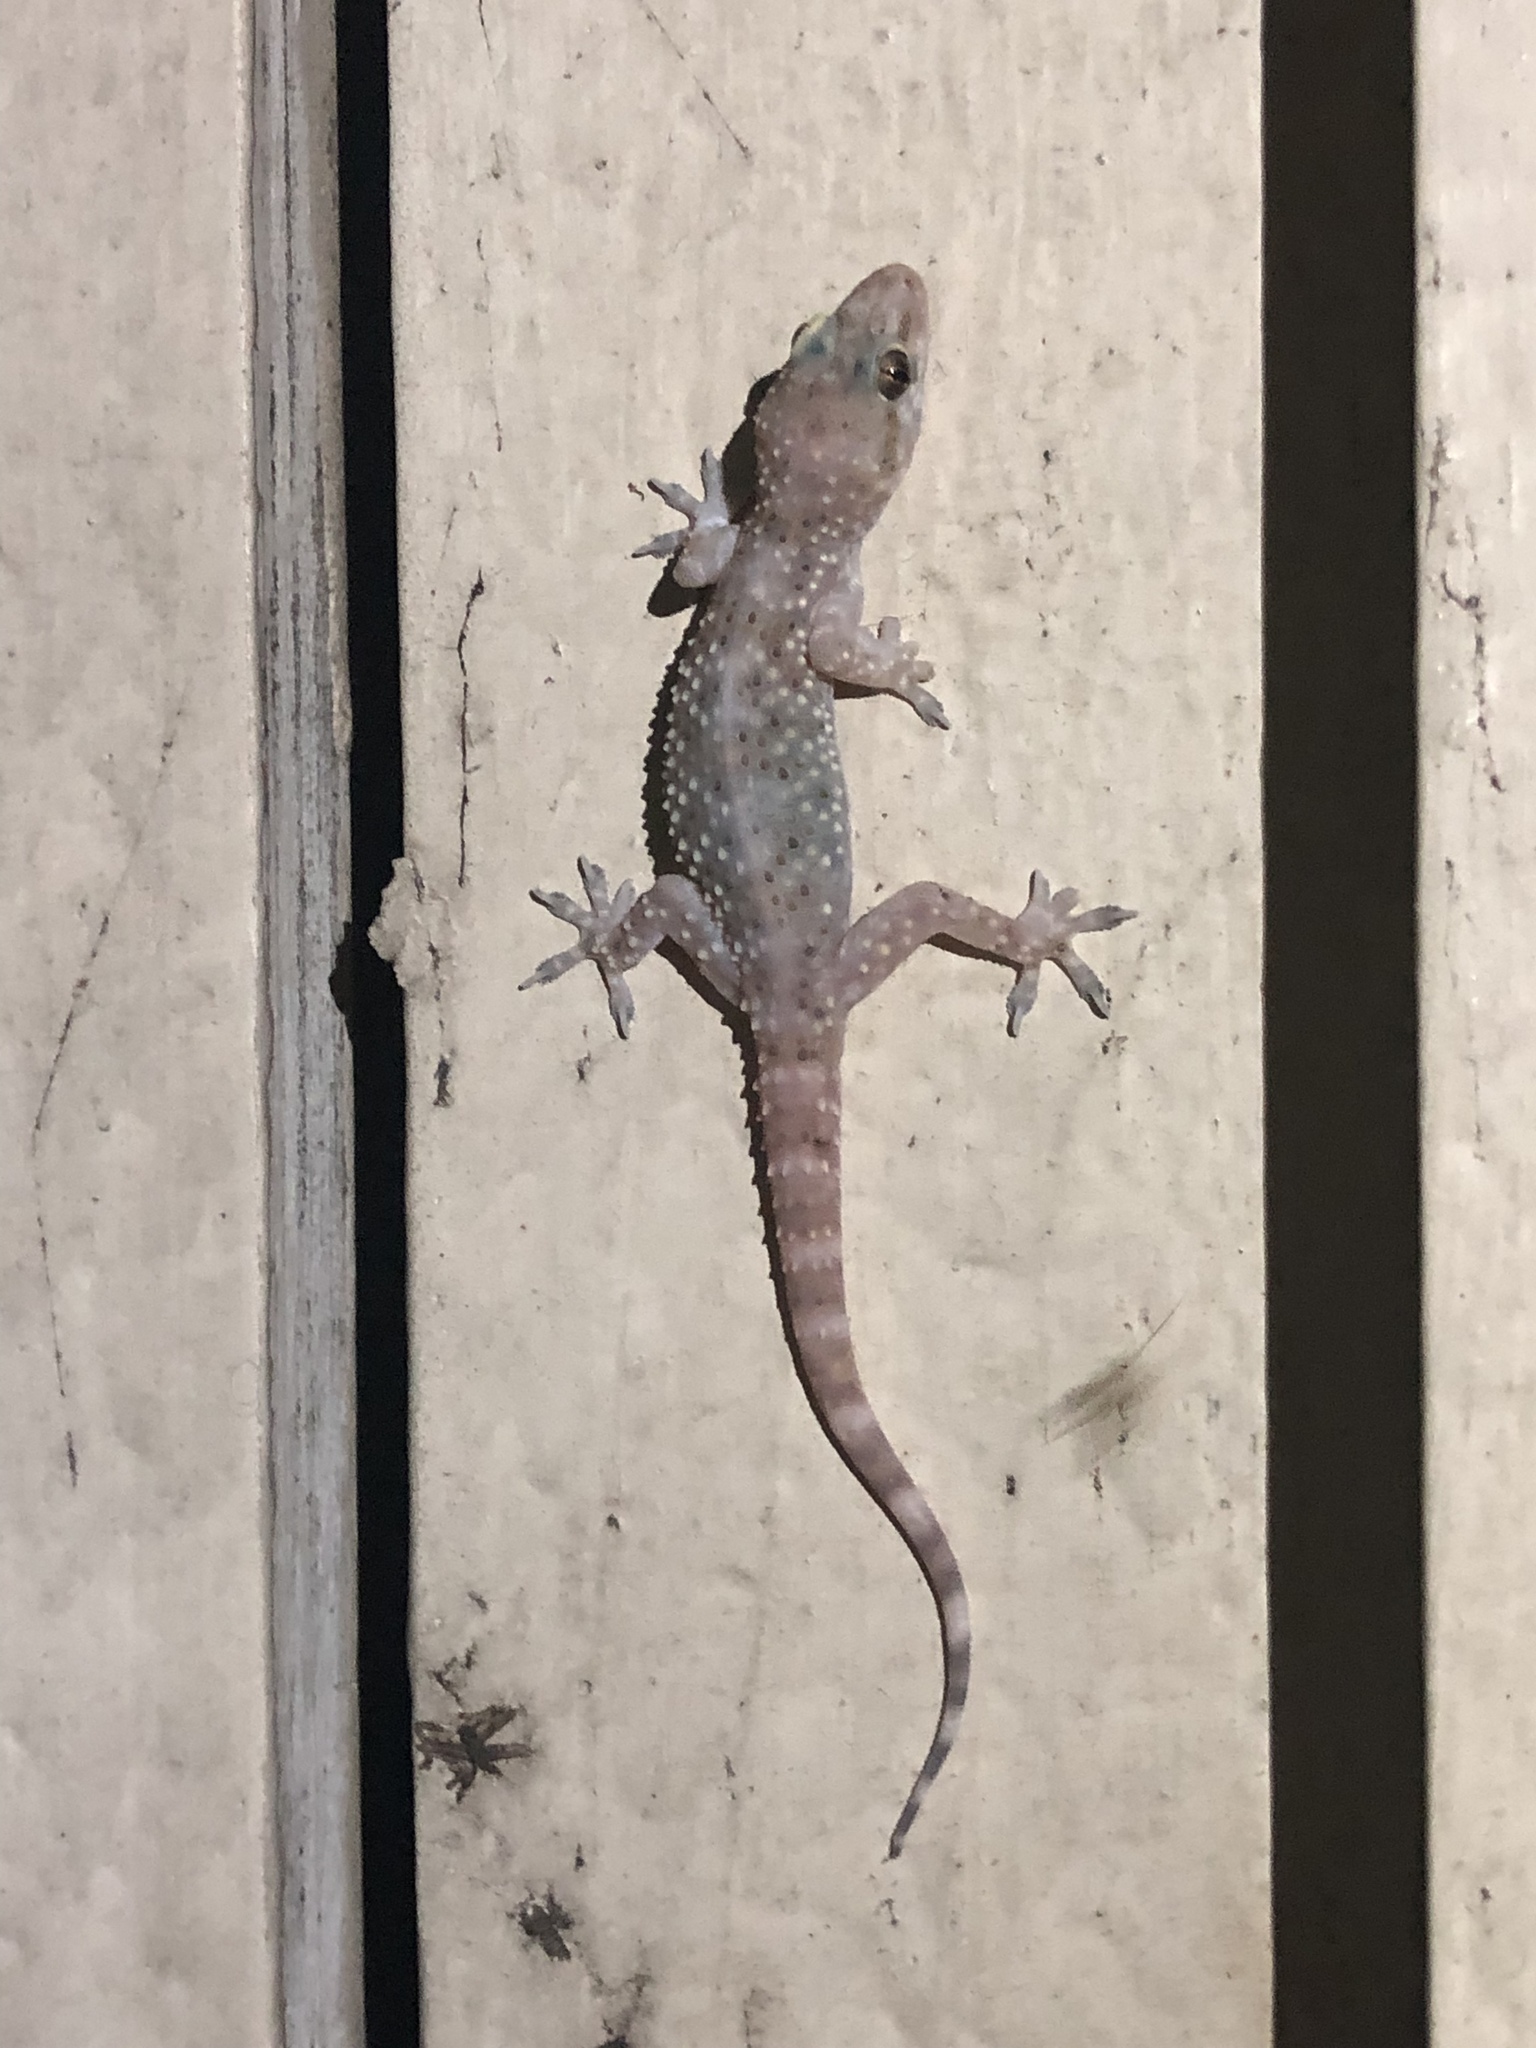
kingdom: Animalia
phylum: Chordata
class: Squamata
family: Gekkonidae
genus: Hemidactylus
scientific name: Hemidactylus turcicus
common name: Turkish gecko
